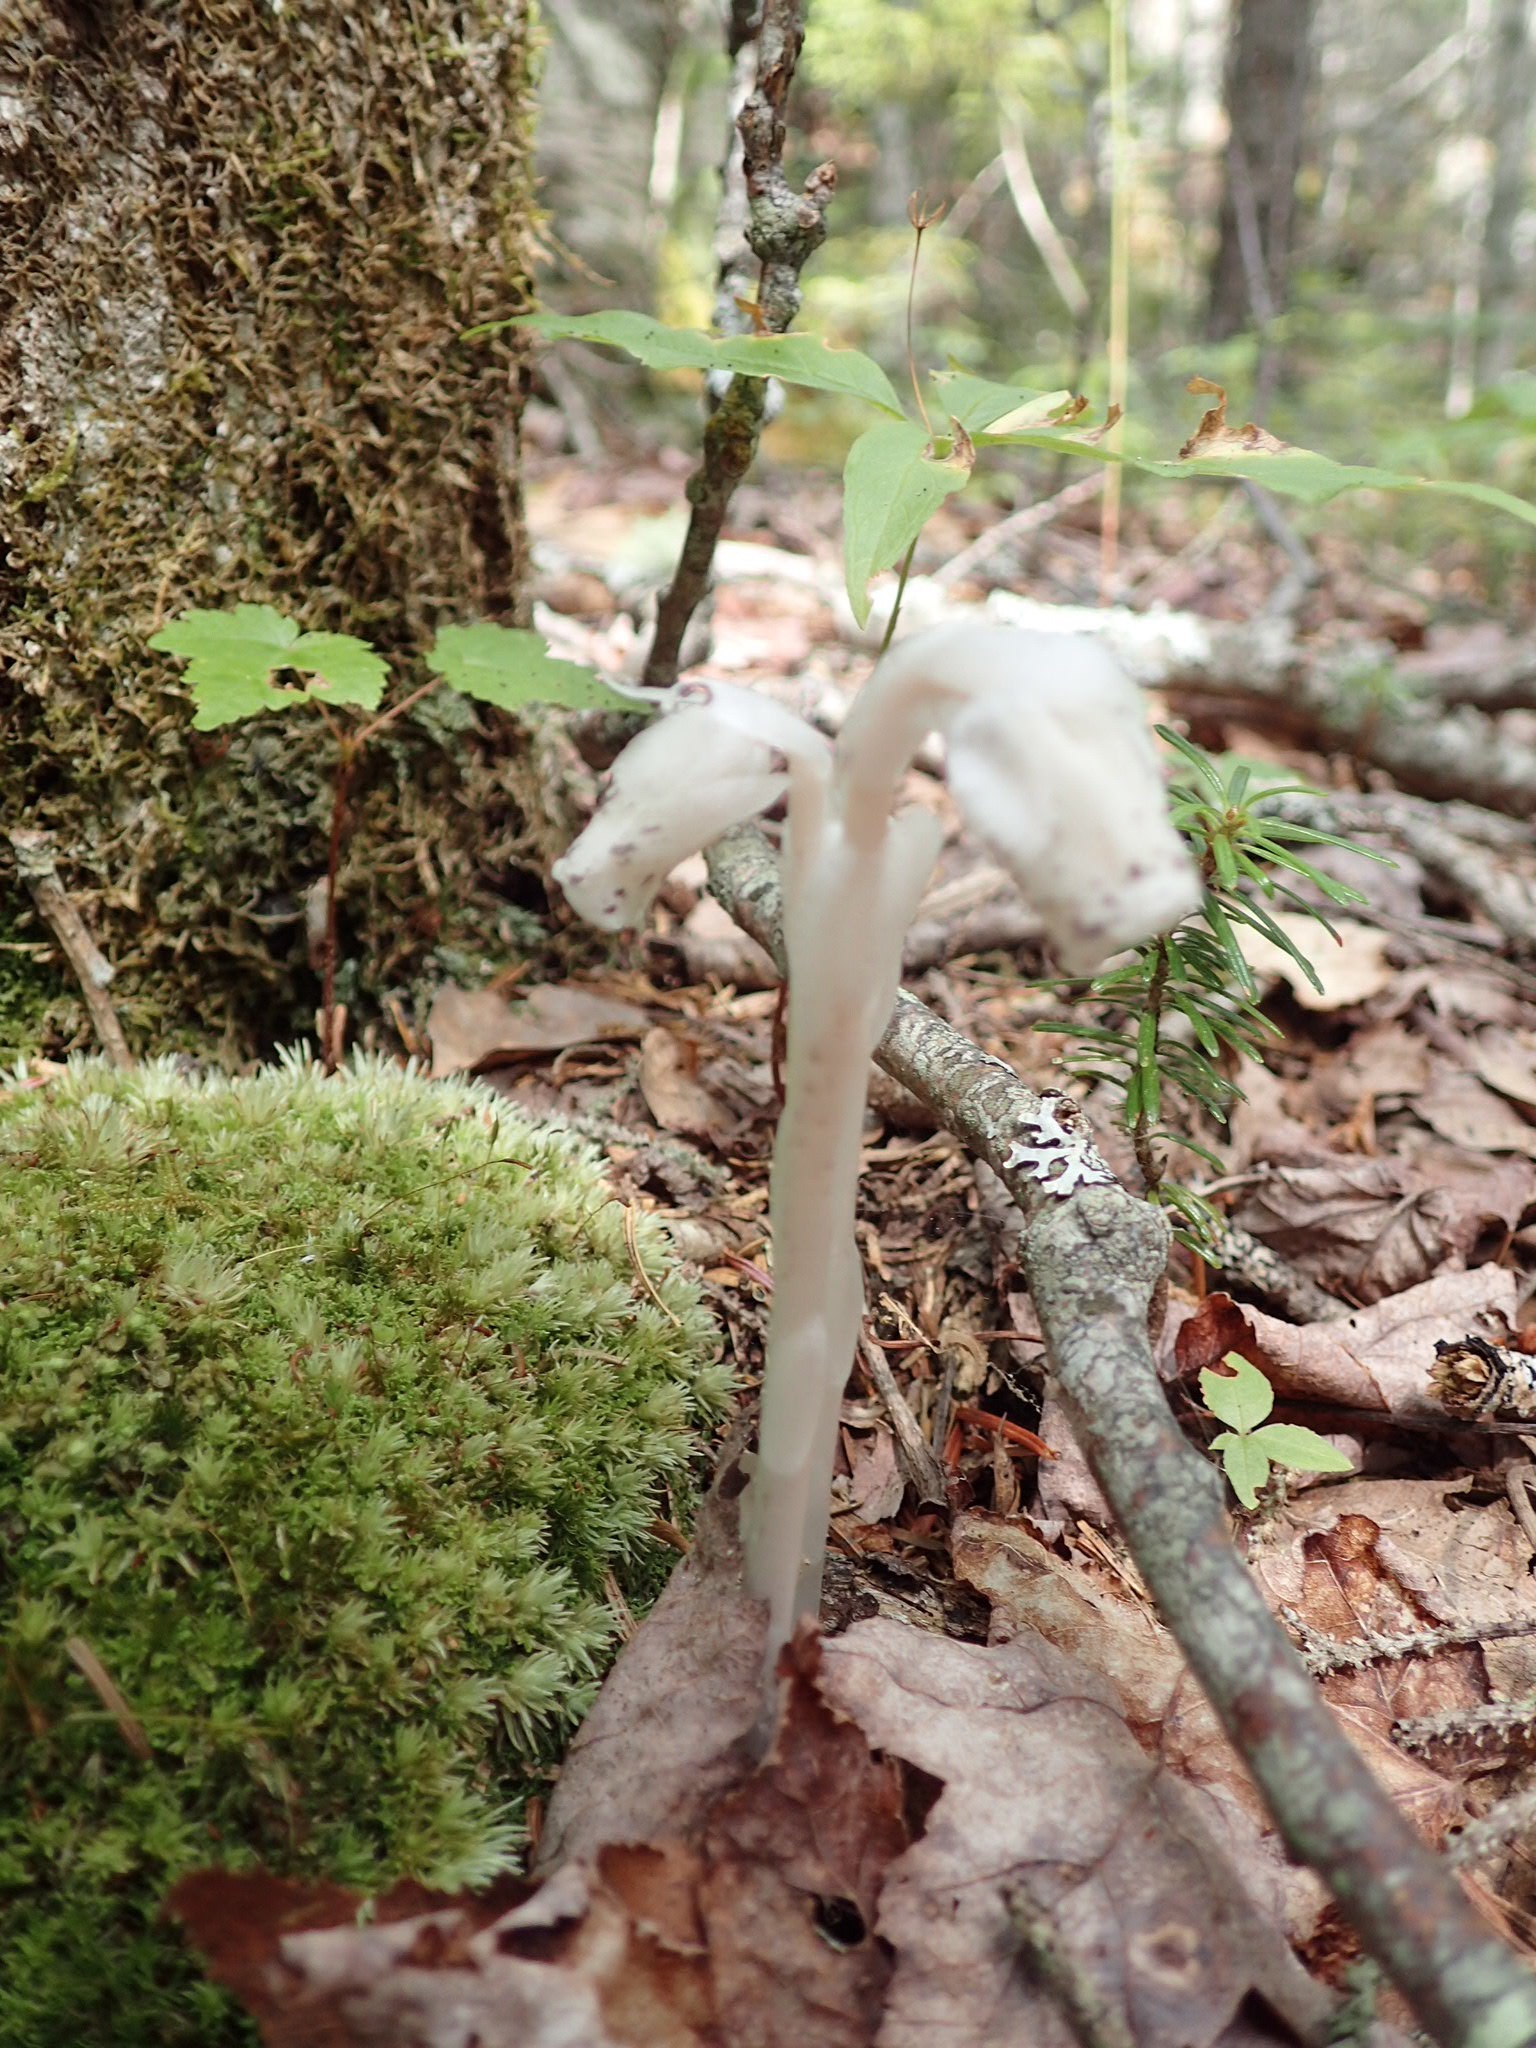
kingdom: Plantae
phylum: Tracheophyta
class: Magnoliopsida
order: Ericales
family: Ericaceae
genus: Monotropa
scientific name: Monotropa uniflora
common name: Convulsion root
